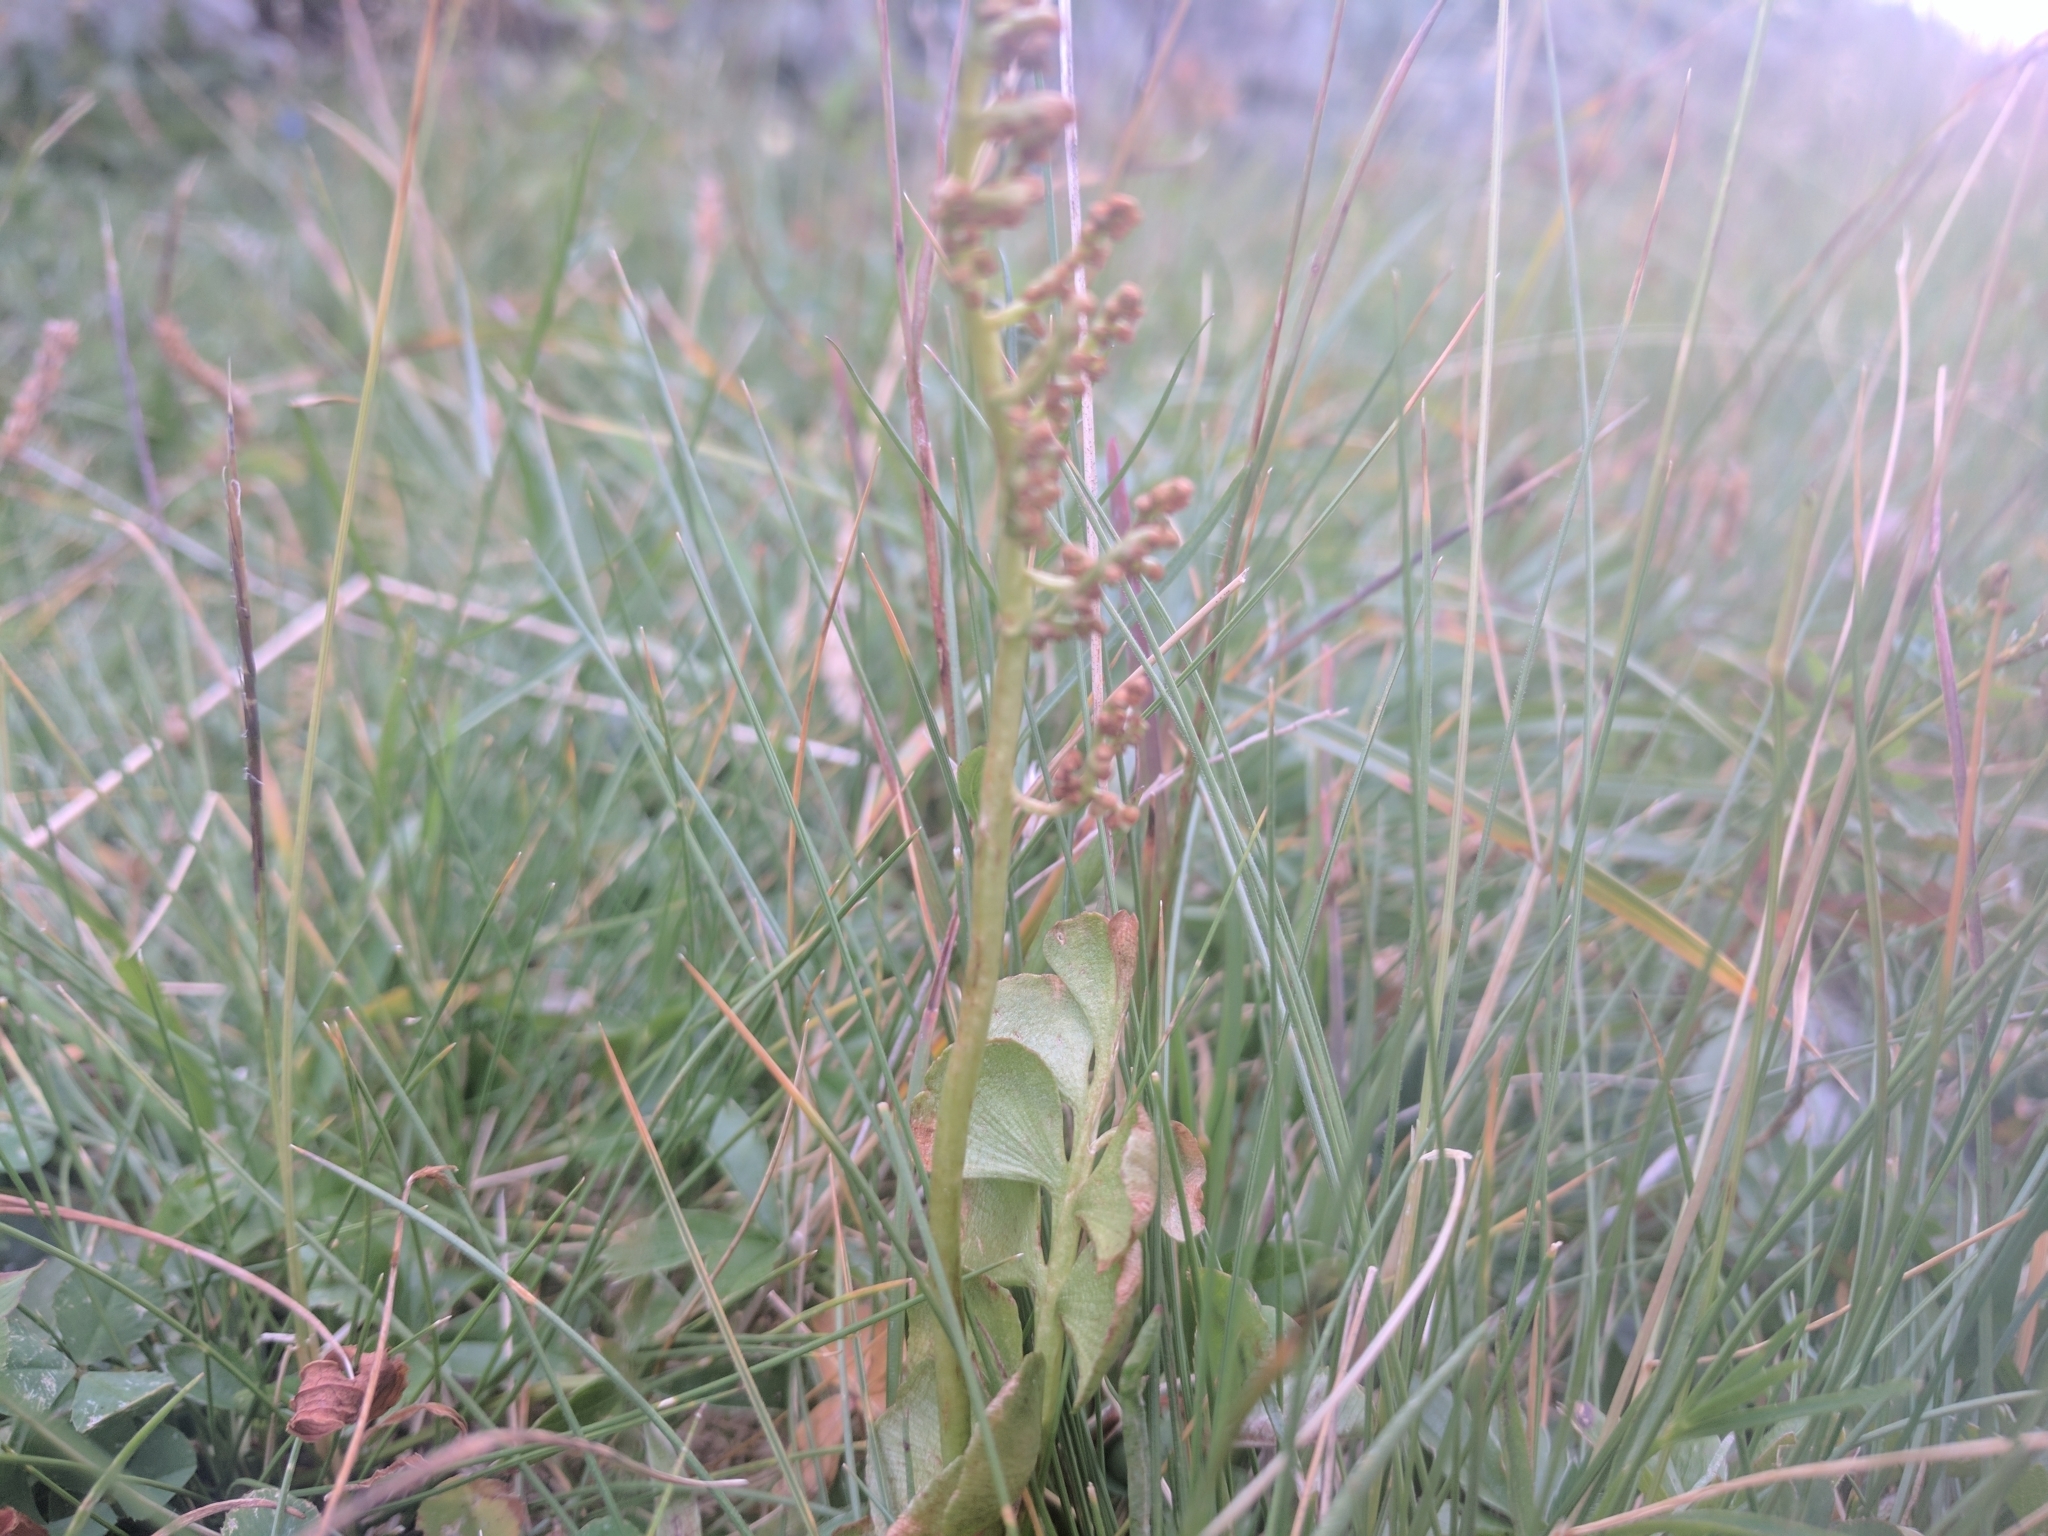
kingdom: Plantae
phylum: Tracheophyta
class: Polypodiopsida
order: Ophioglossales
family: Ophioglossaceae
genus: Botrychium
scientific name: Botrychium lunaria
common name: Moonwort
